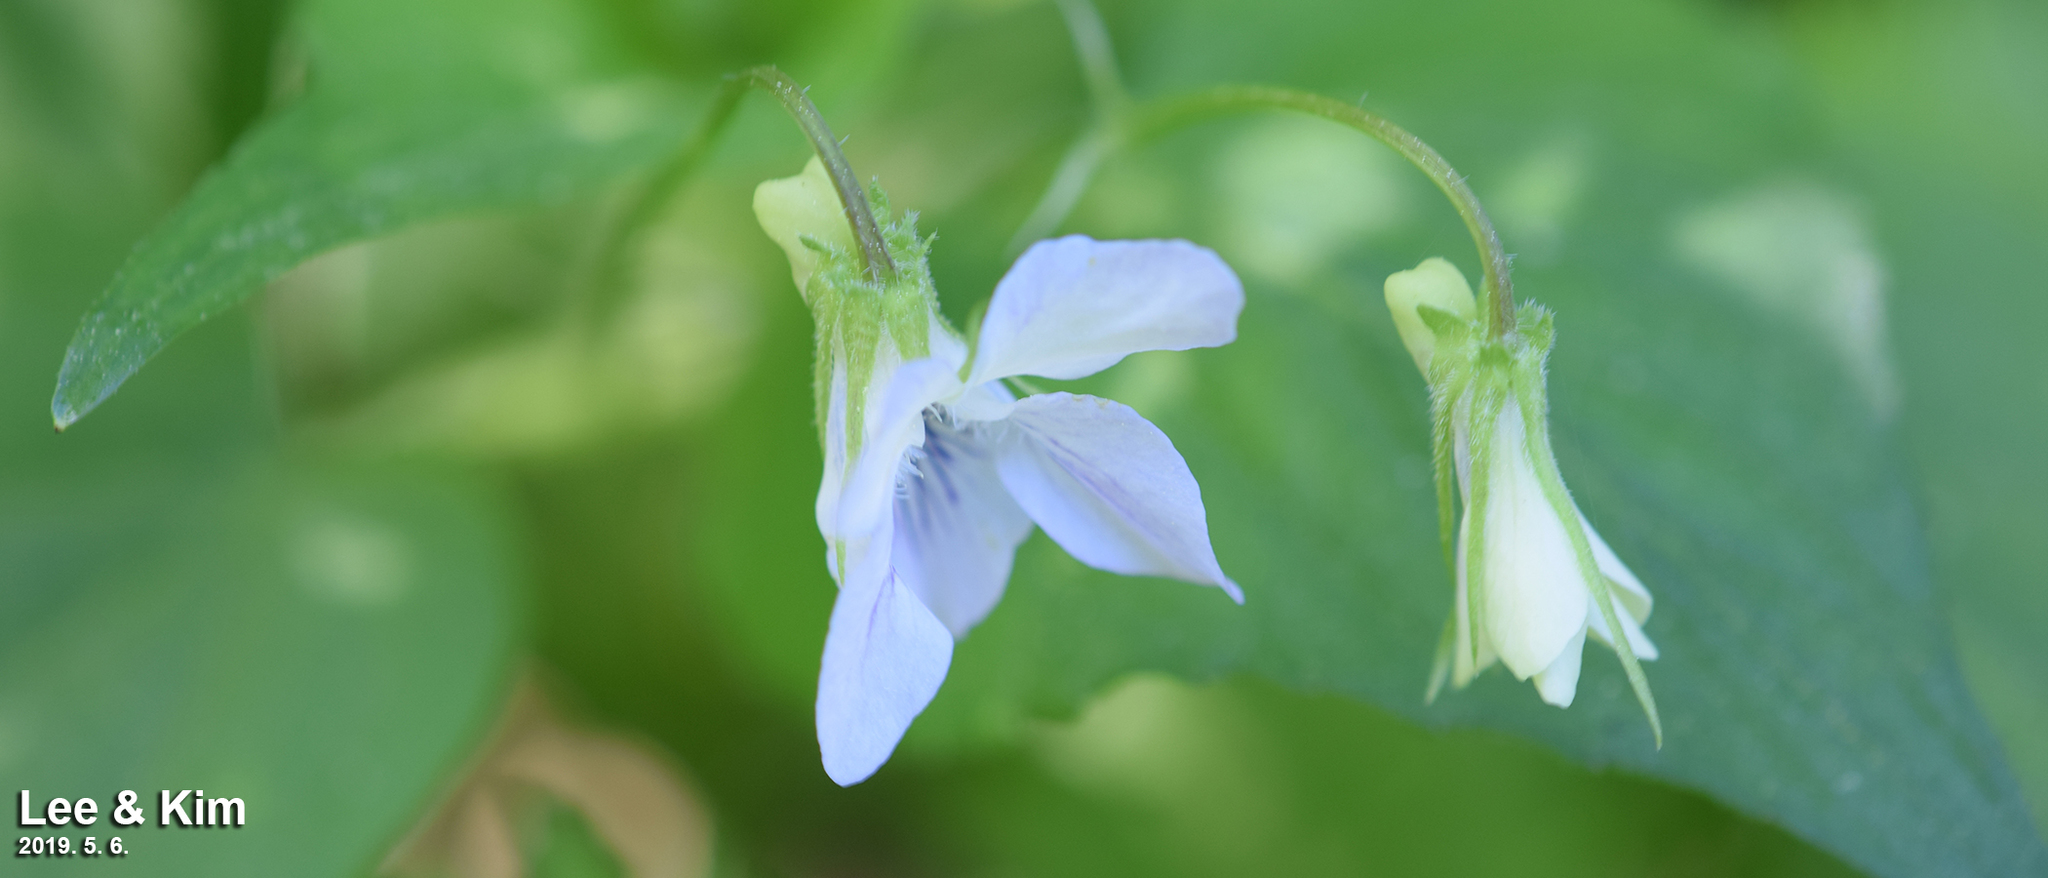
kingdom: Plantae
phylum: Tracheophyta
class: Magnoliopsida
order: Malpighiales
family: Violaceae
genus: Viola
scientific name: Viola acuminata
